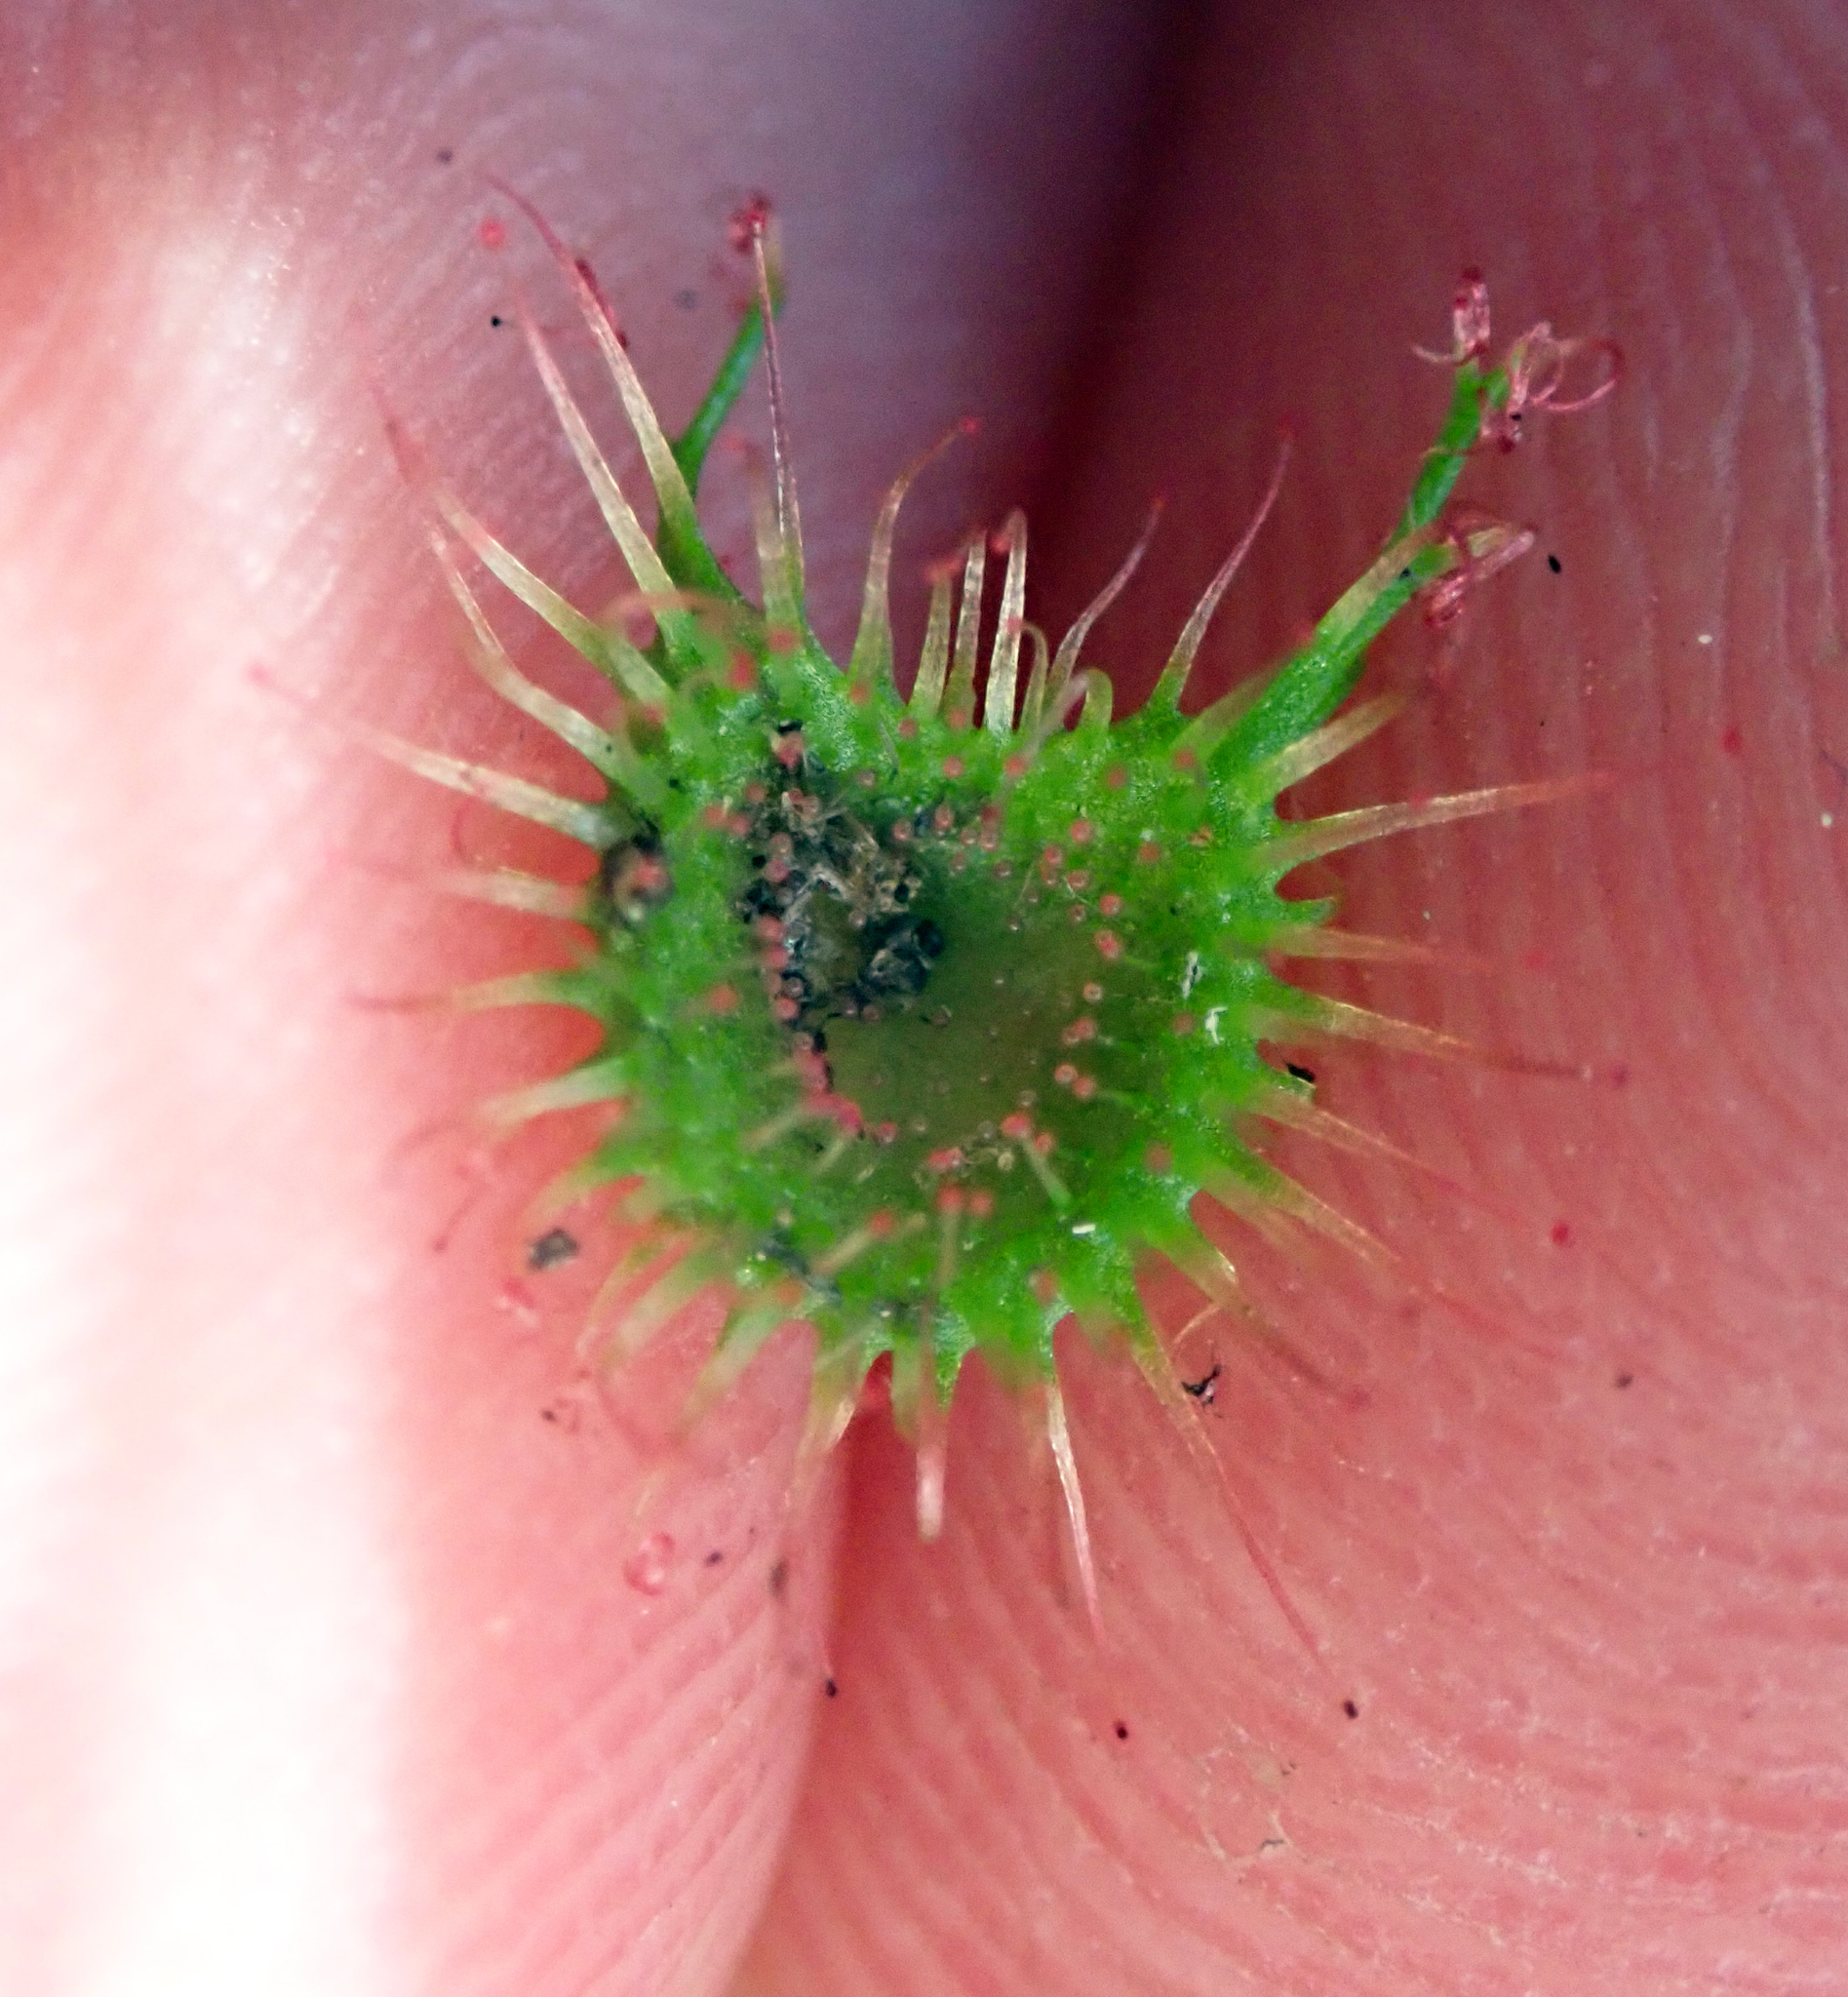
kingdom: Plantae
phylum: Tracheophyta
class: Magnoliopsida
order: Caryophyllales
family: Droseraceae
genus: Drosera
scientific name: Drosera peltata
